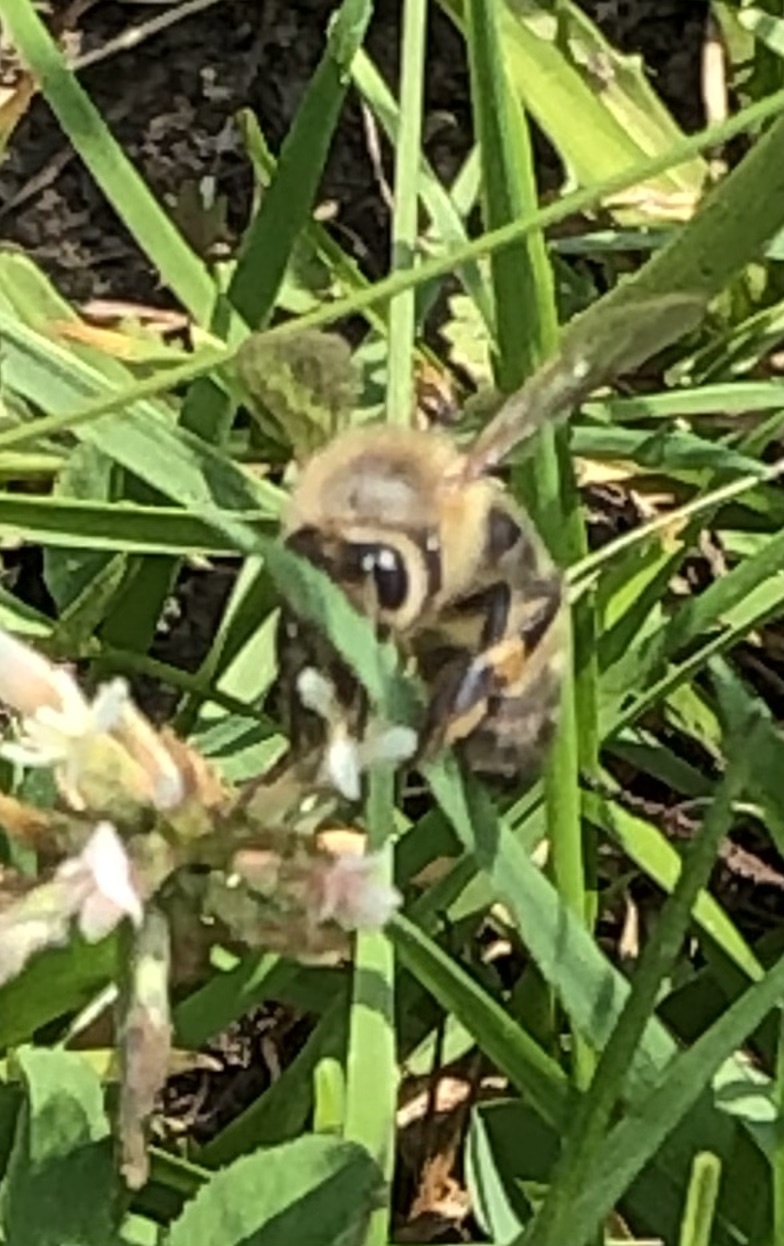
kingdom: Animalia
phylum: Arthropoda
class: Insecta
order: Hymenoptera
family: Apidae
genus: Apis
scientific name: Apis mellifera
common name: Honey bee
